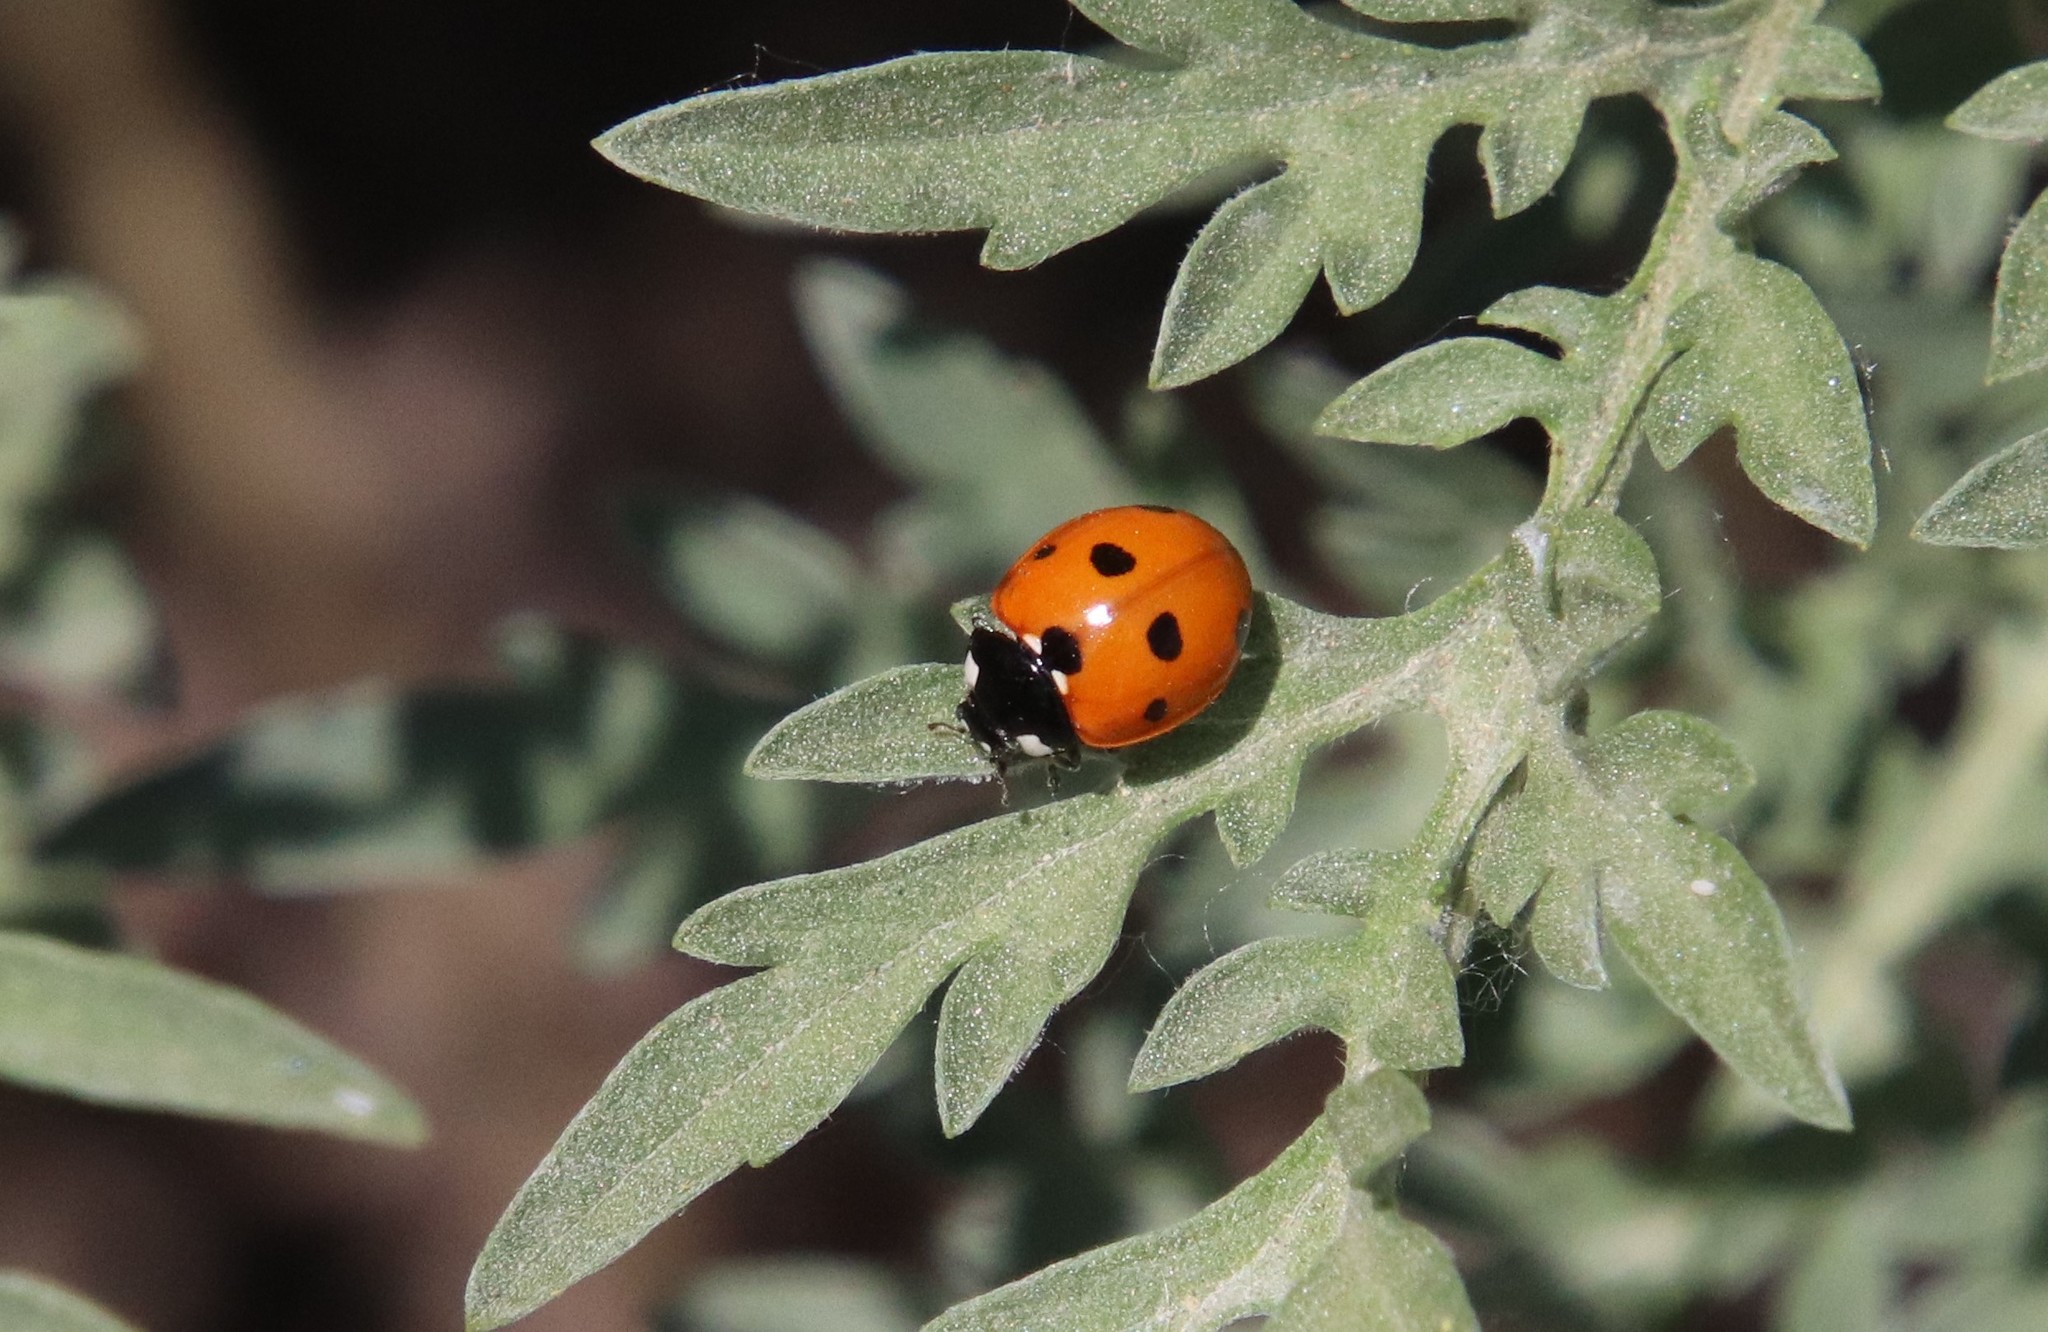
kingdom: Animalia
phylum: Arthropoda
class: Insecta
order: Coleoptera
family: Coccinellidae
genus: Coccinella
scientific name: Coccinella septempunctata
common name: Sevenspotted lady beetle
